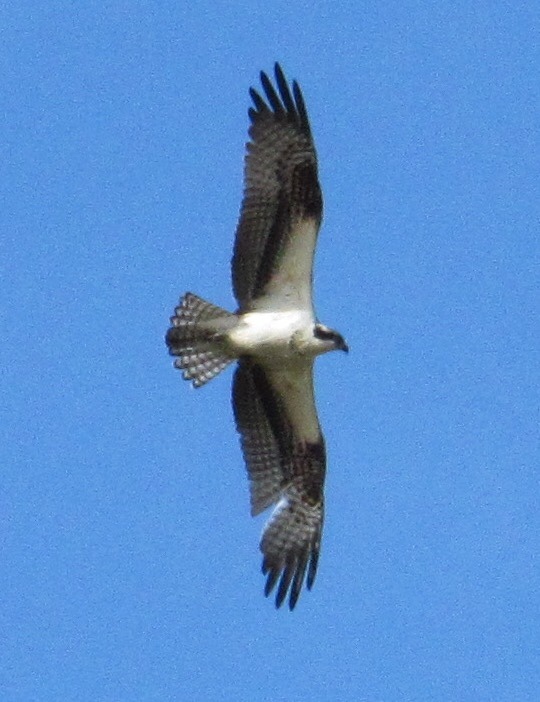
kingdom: Animalia
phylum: Chordata
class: Aves
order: Accipitriformes
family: Pandionidae
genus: Pandion
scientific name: Pandion haliaetus
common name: Osprey
